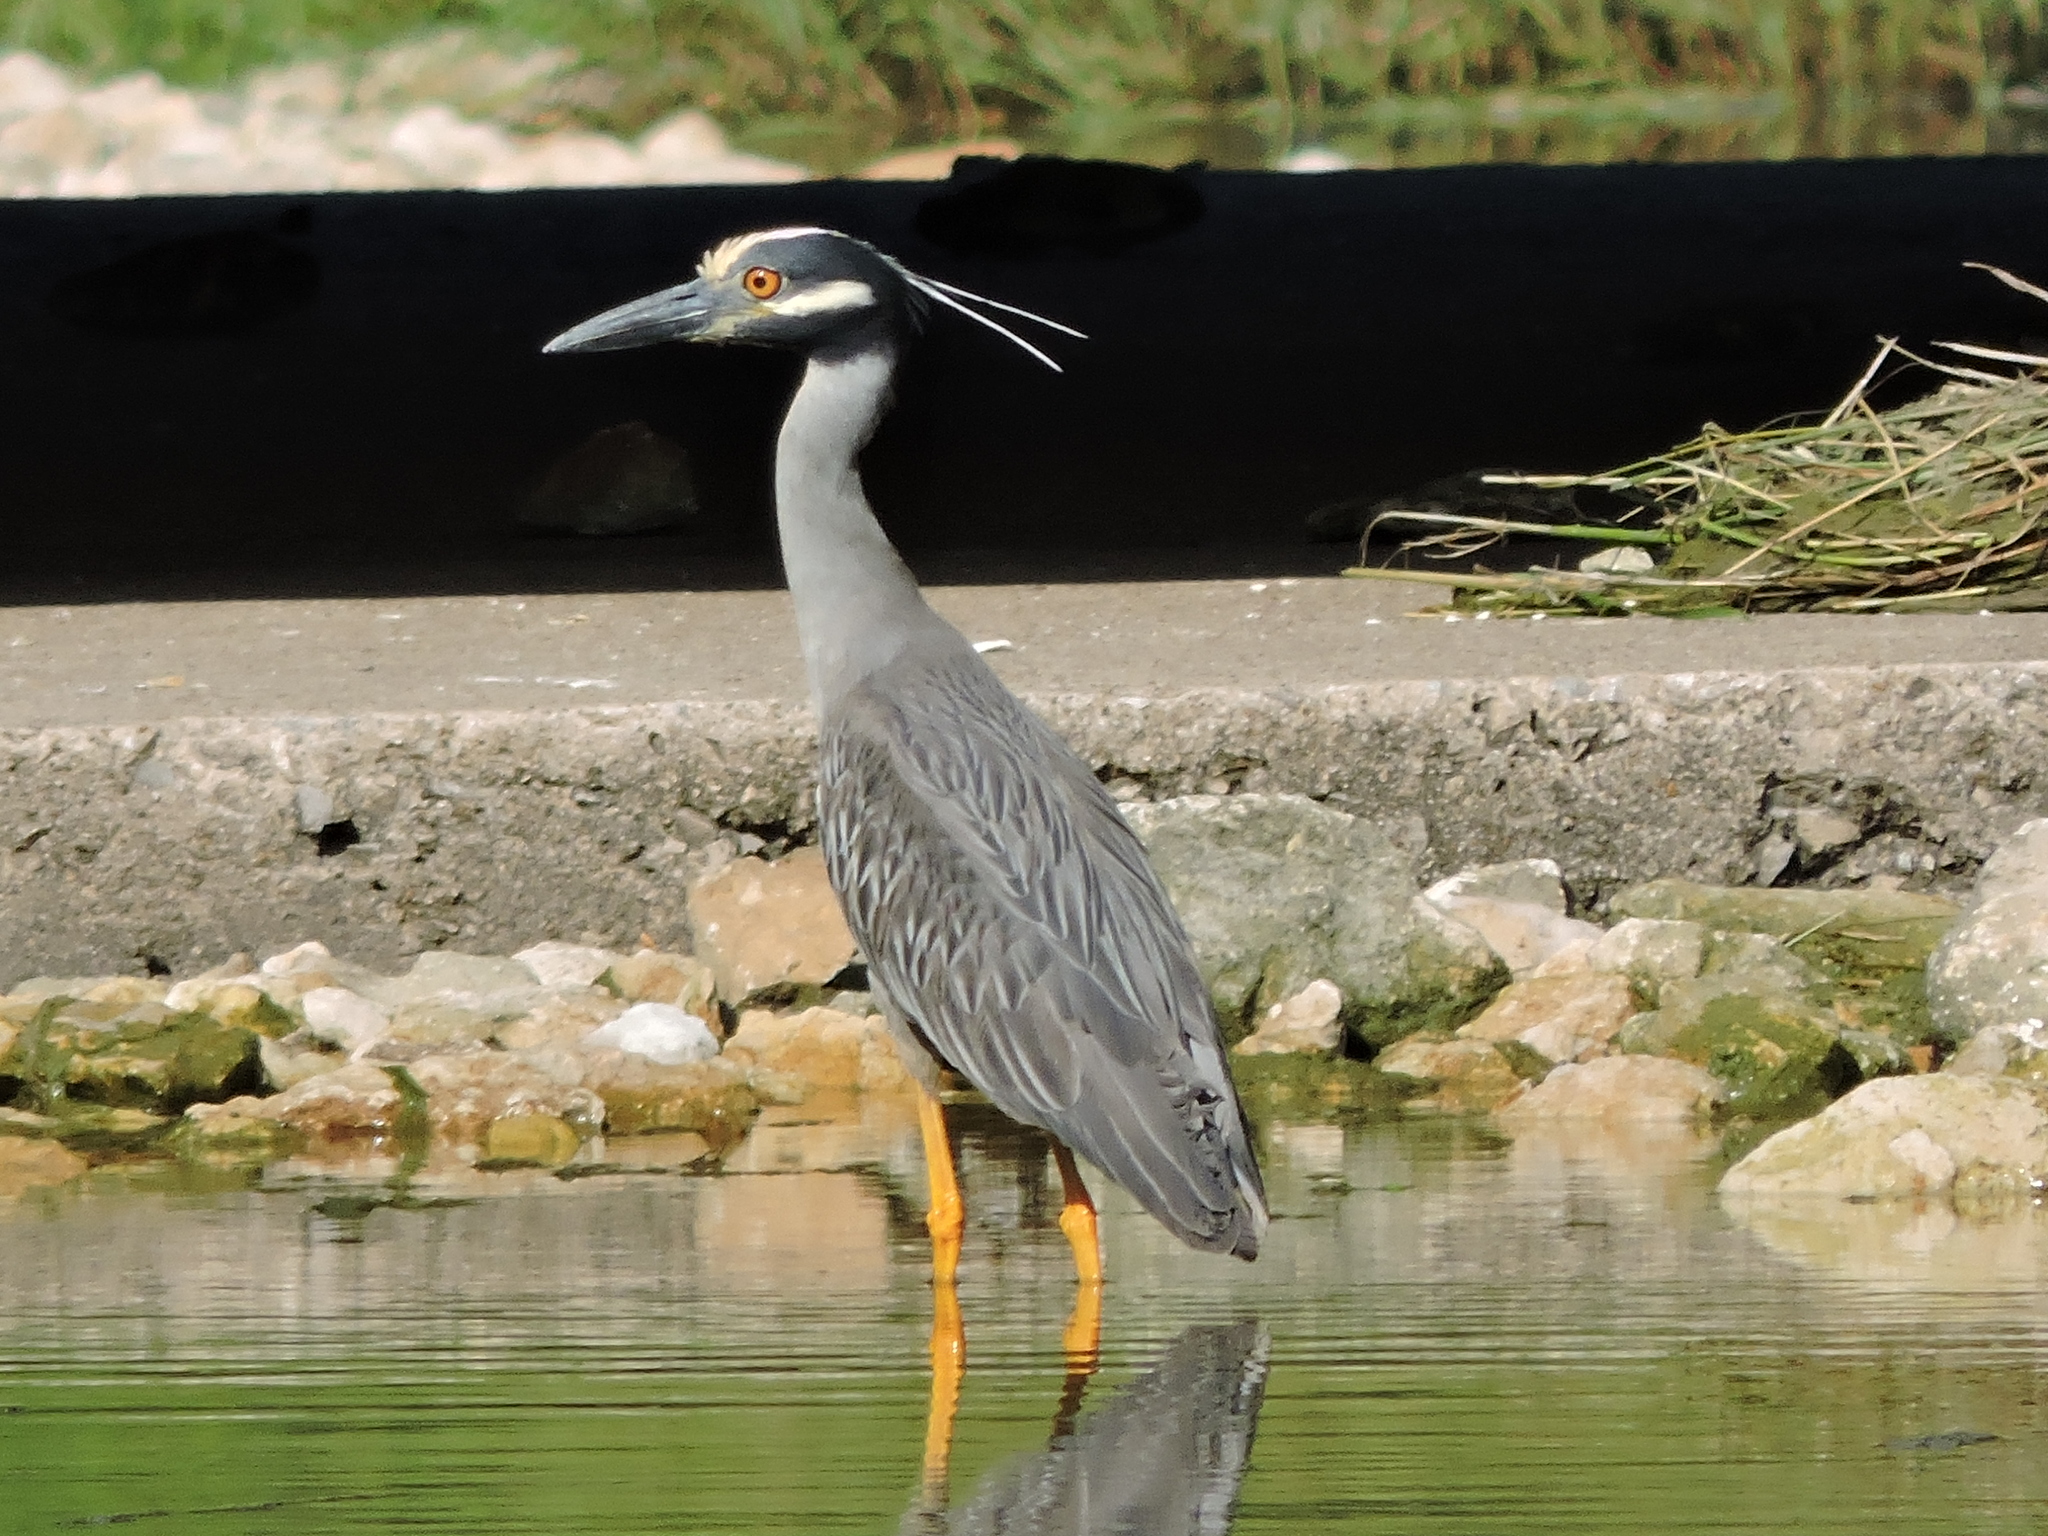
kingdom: Animalia
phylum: Chordata
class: Aves
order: Pelecaniformes
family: Ardeidae
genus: Nyctanassa
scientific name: Nyctanassa violacea
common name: Yellow-crowned night heron
